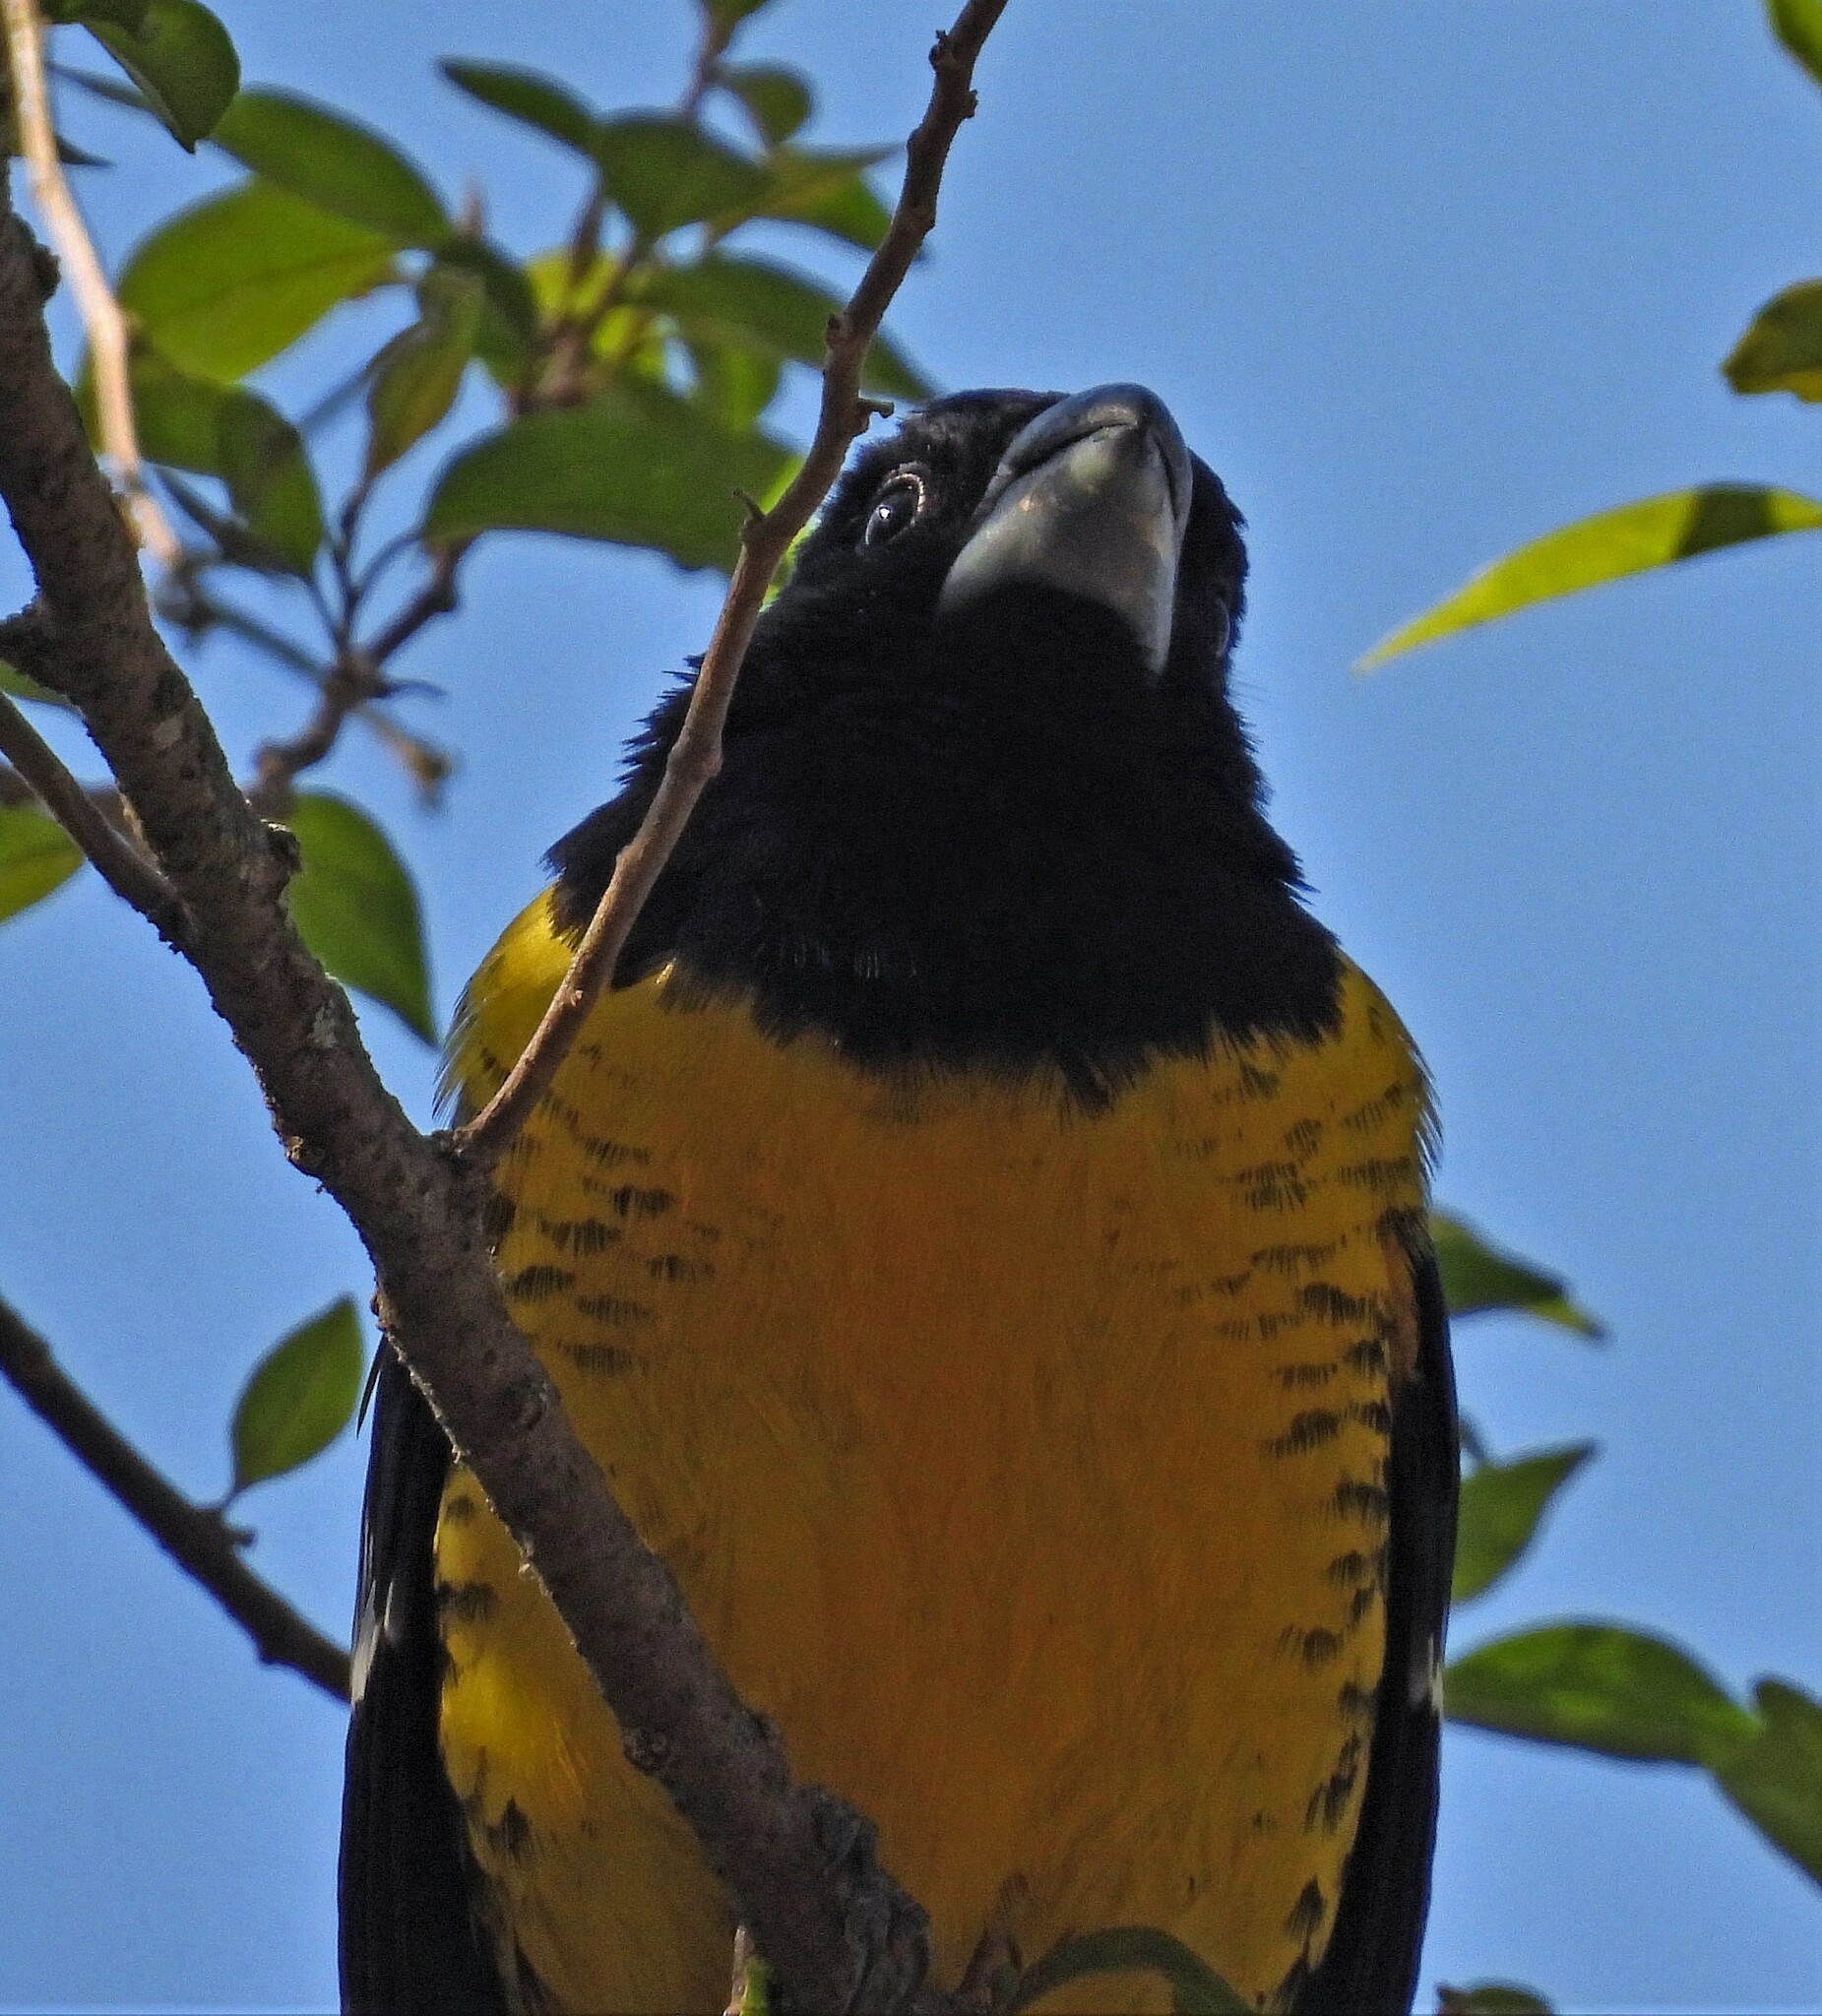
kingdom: Animalia
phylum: Chordata
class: Aves
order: Passeriformes
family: Cardinalidae
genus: Pheucticus
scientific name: Pheucticus aureoventris
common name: Black-backed grosbeak
